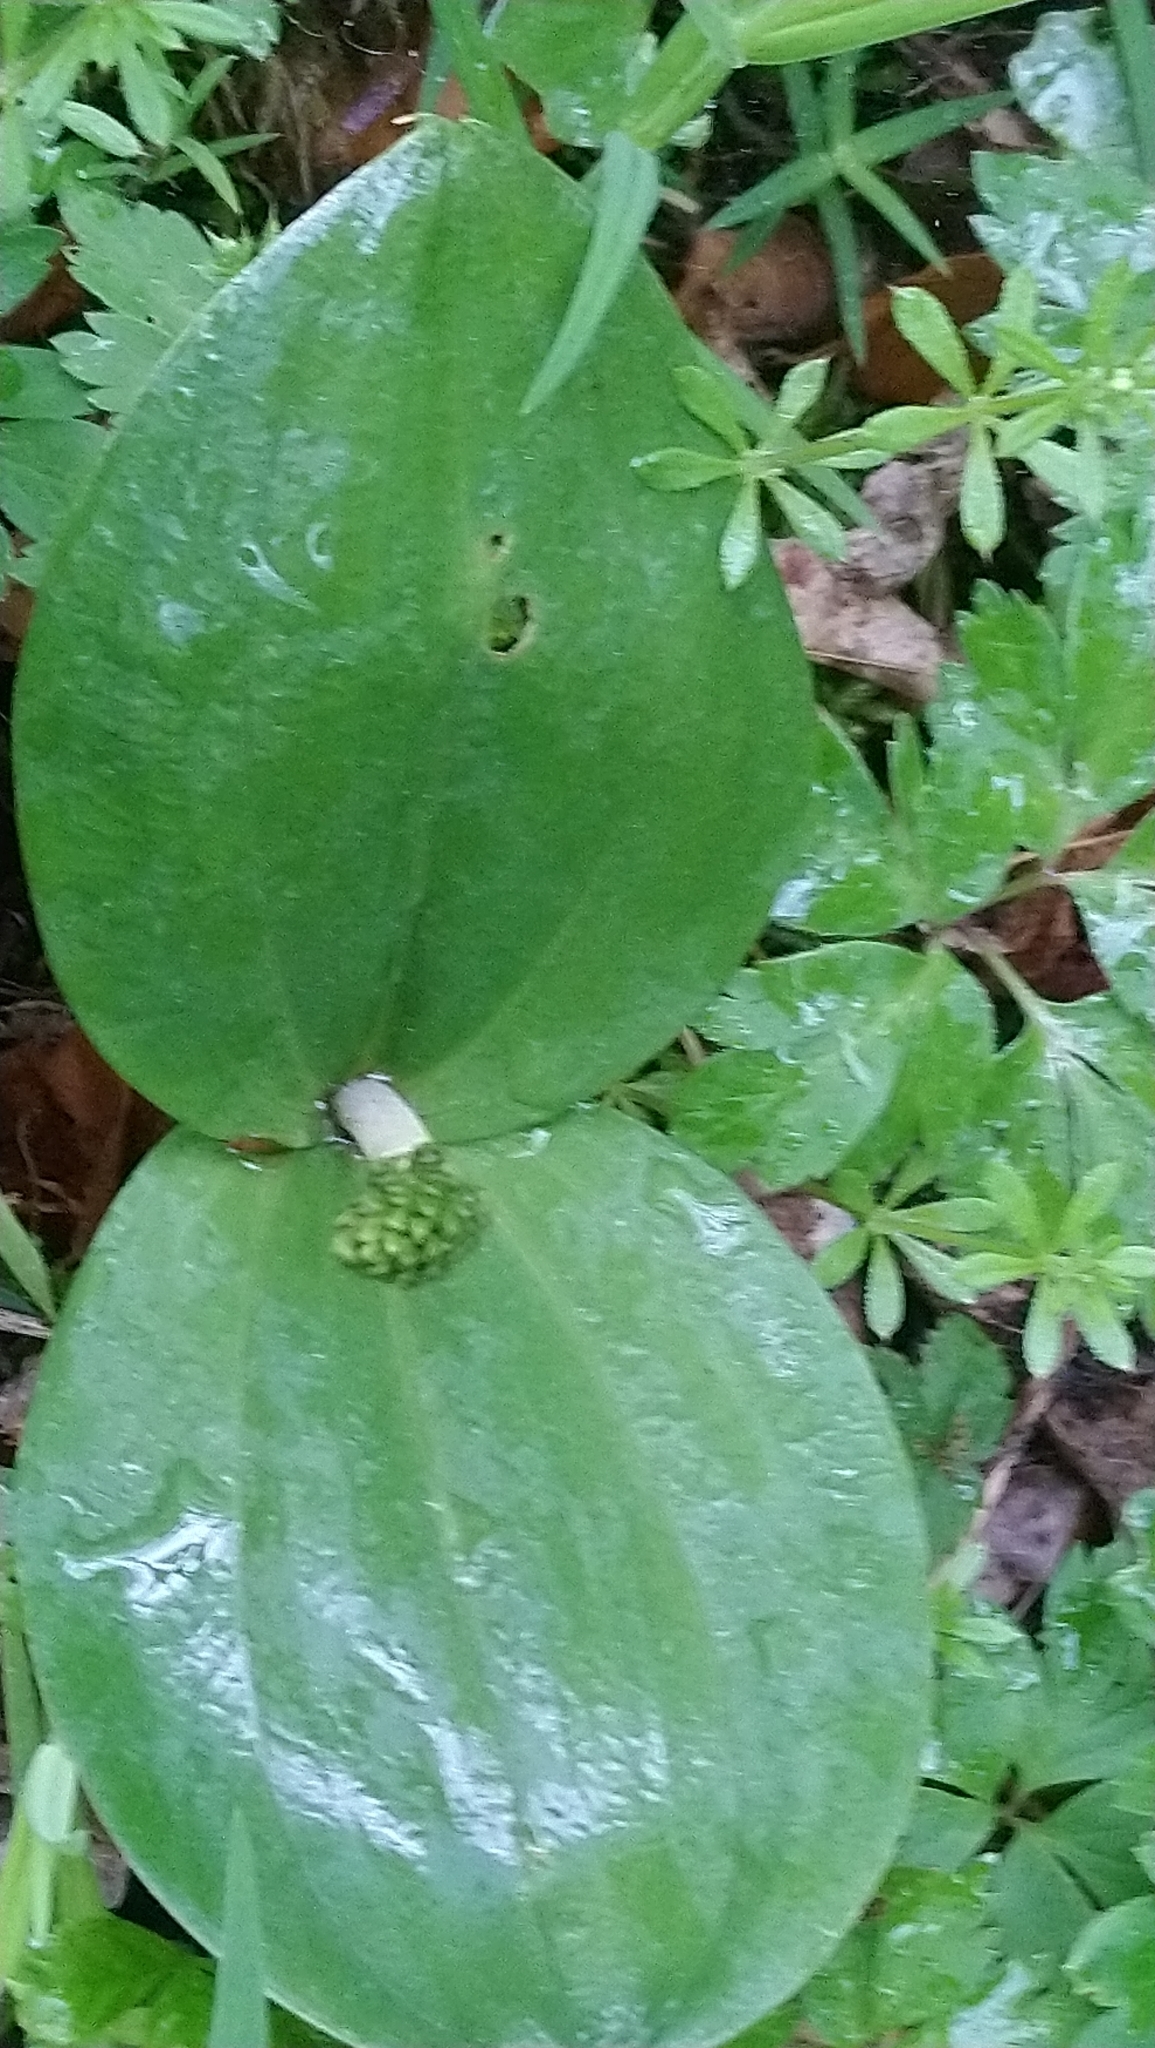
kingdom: Plantae
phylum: Tracheophyta
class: Liliopsida
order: Asparagales
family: Orchidaceae
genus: Neottia
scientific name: Neottia ovata
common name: Common twayblade
